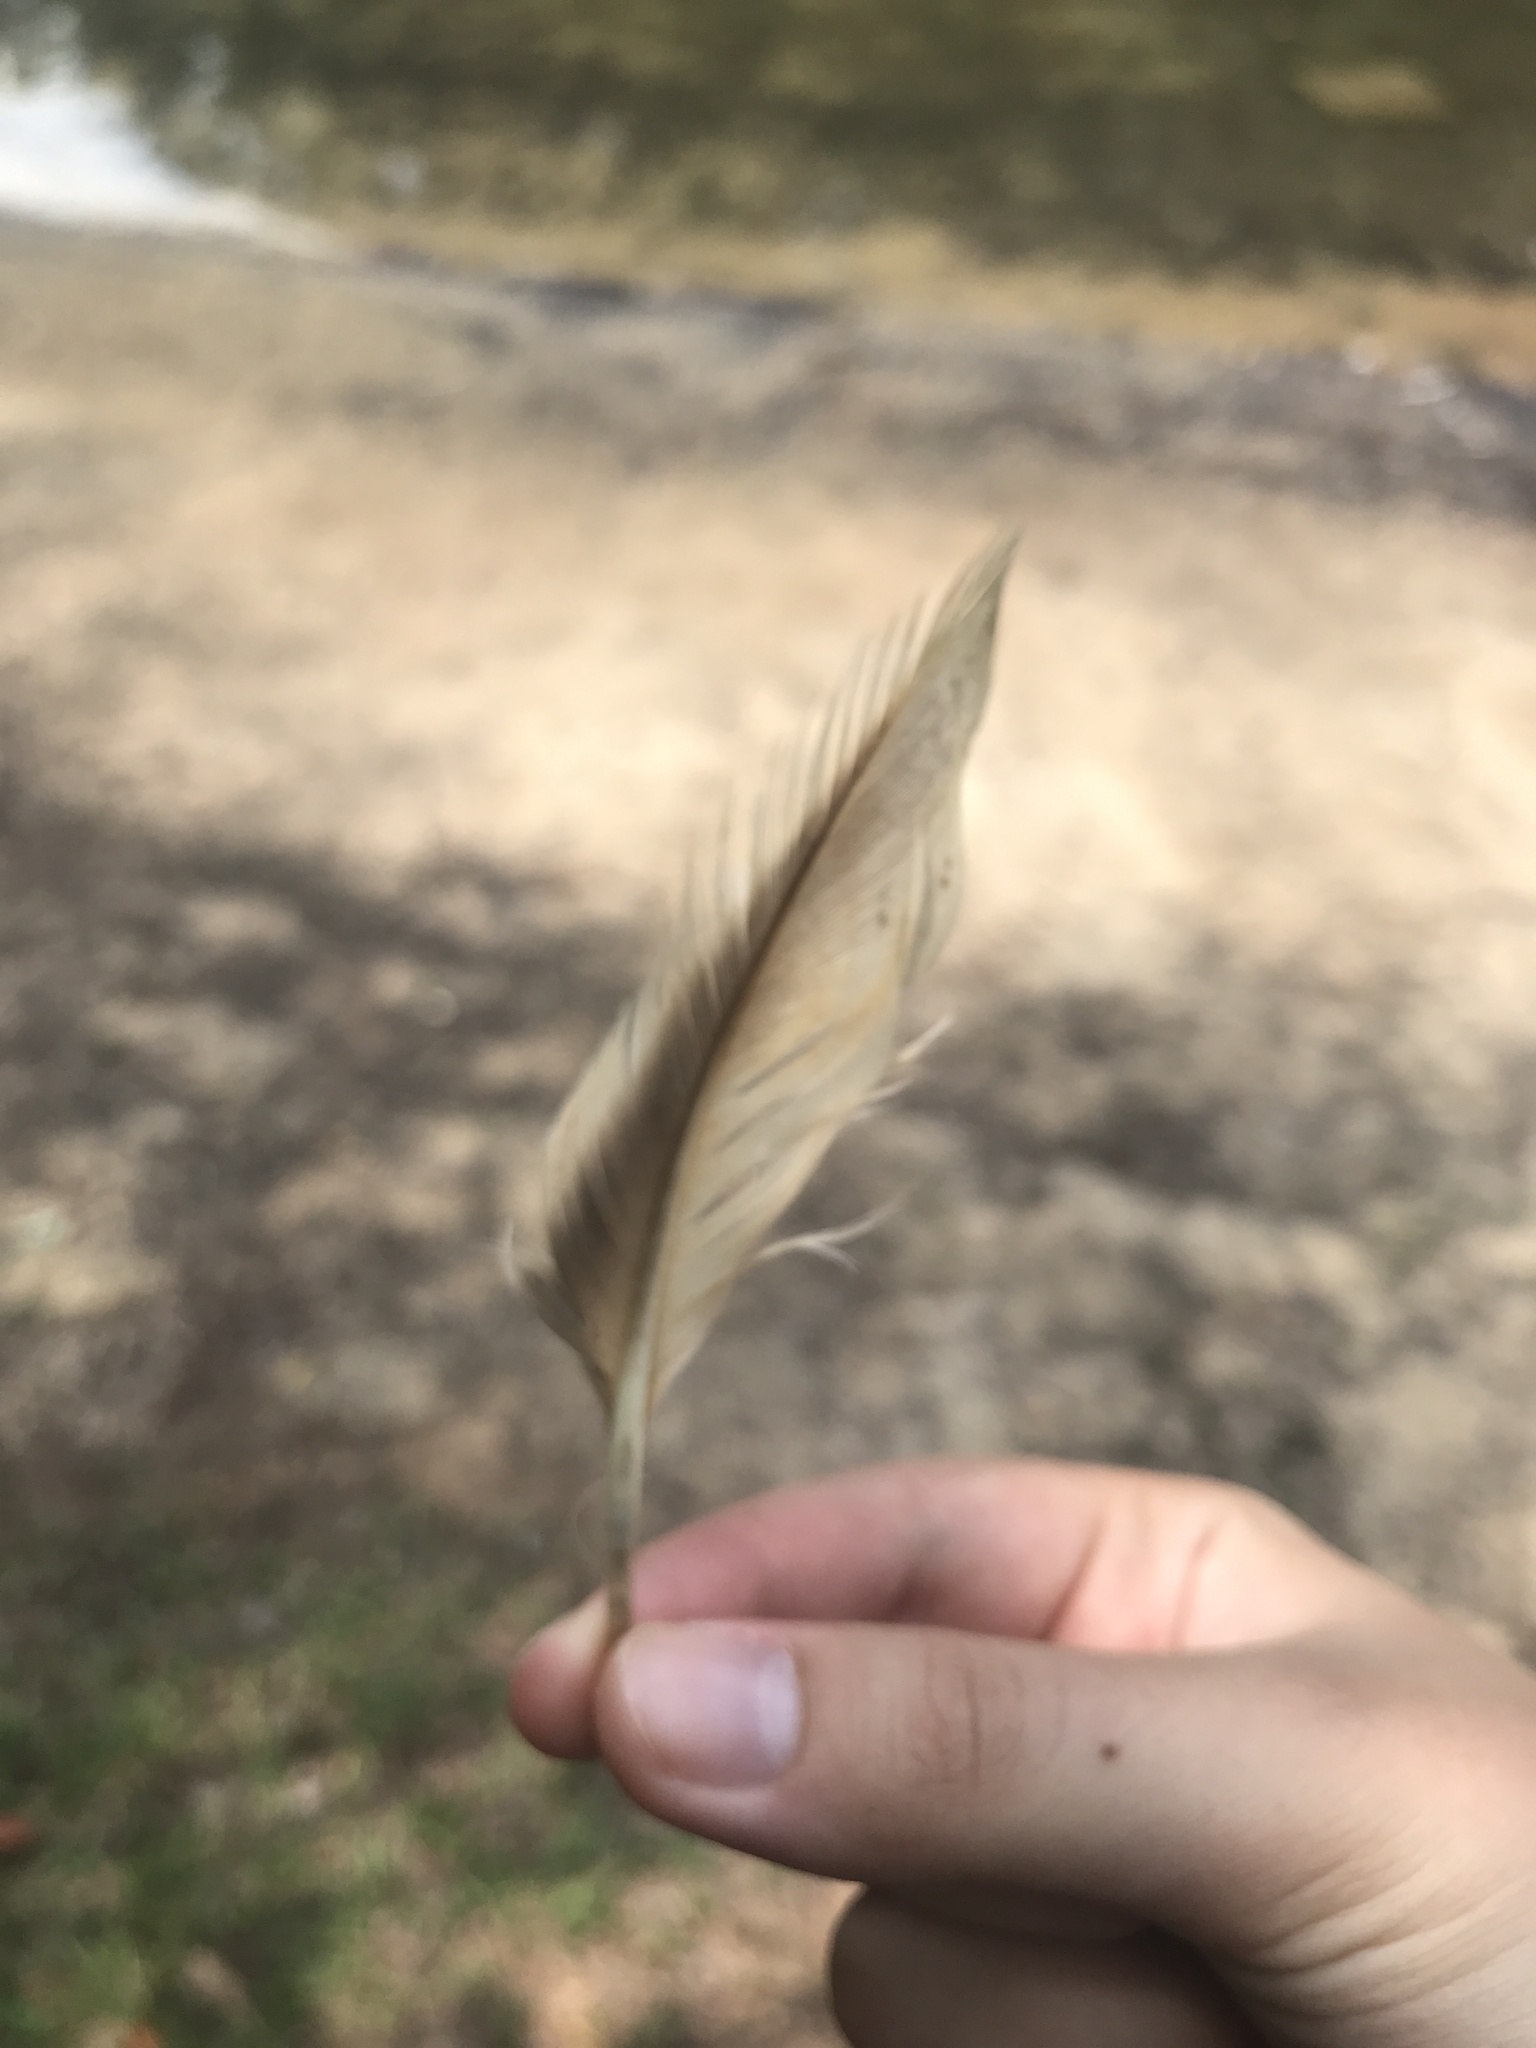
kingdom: Animalia
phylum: Chordata
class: Aves
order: Anseriformes
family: Anatidae
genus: Anas
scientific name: Anas platyrhynchos
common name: Mallard
